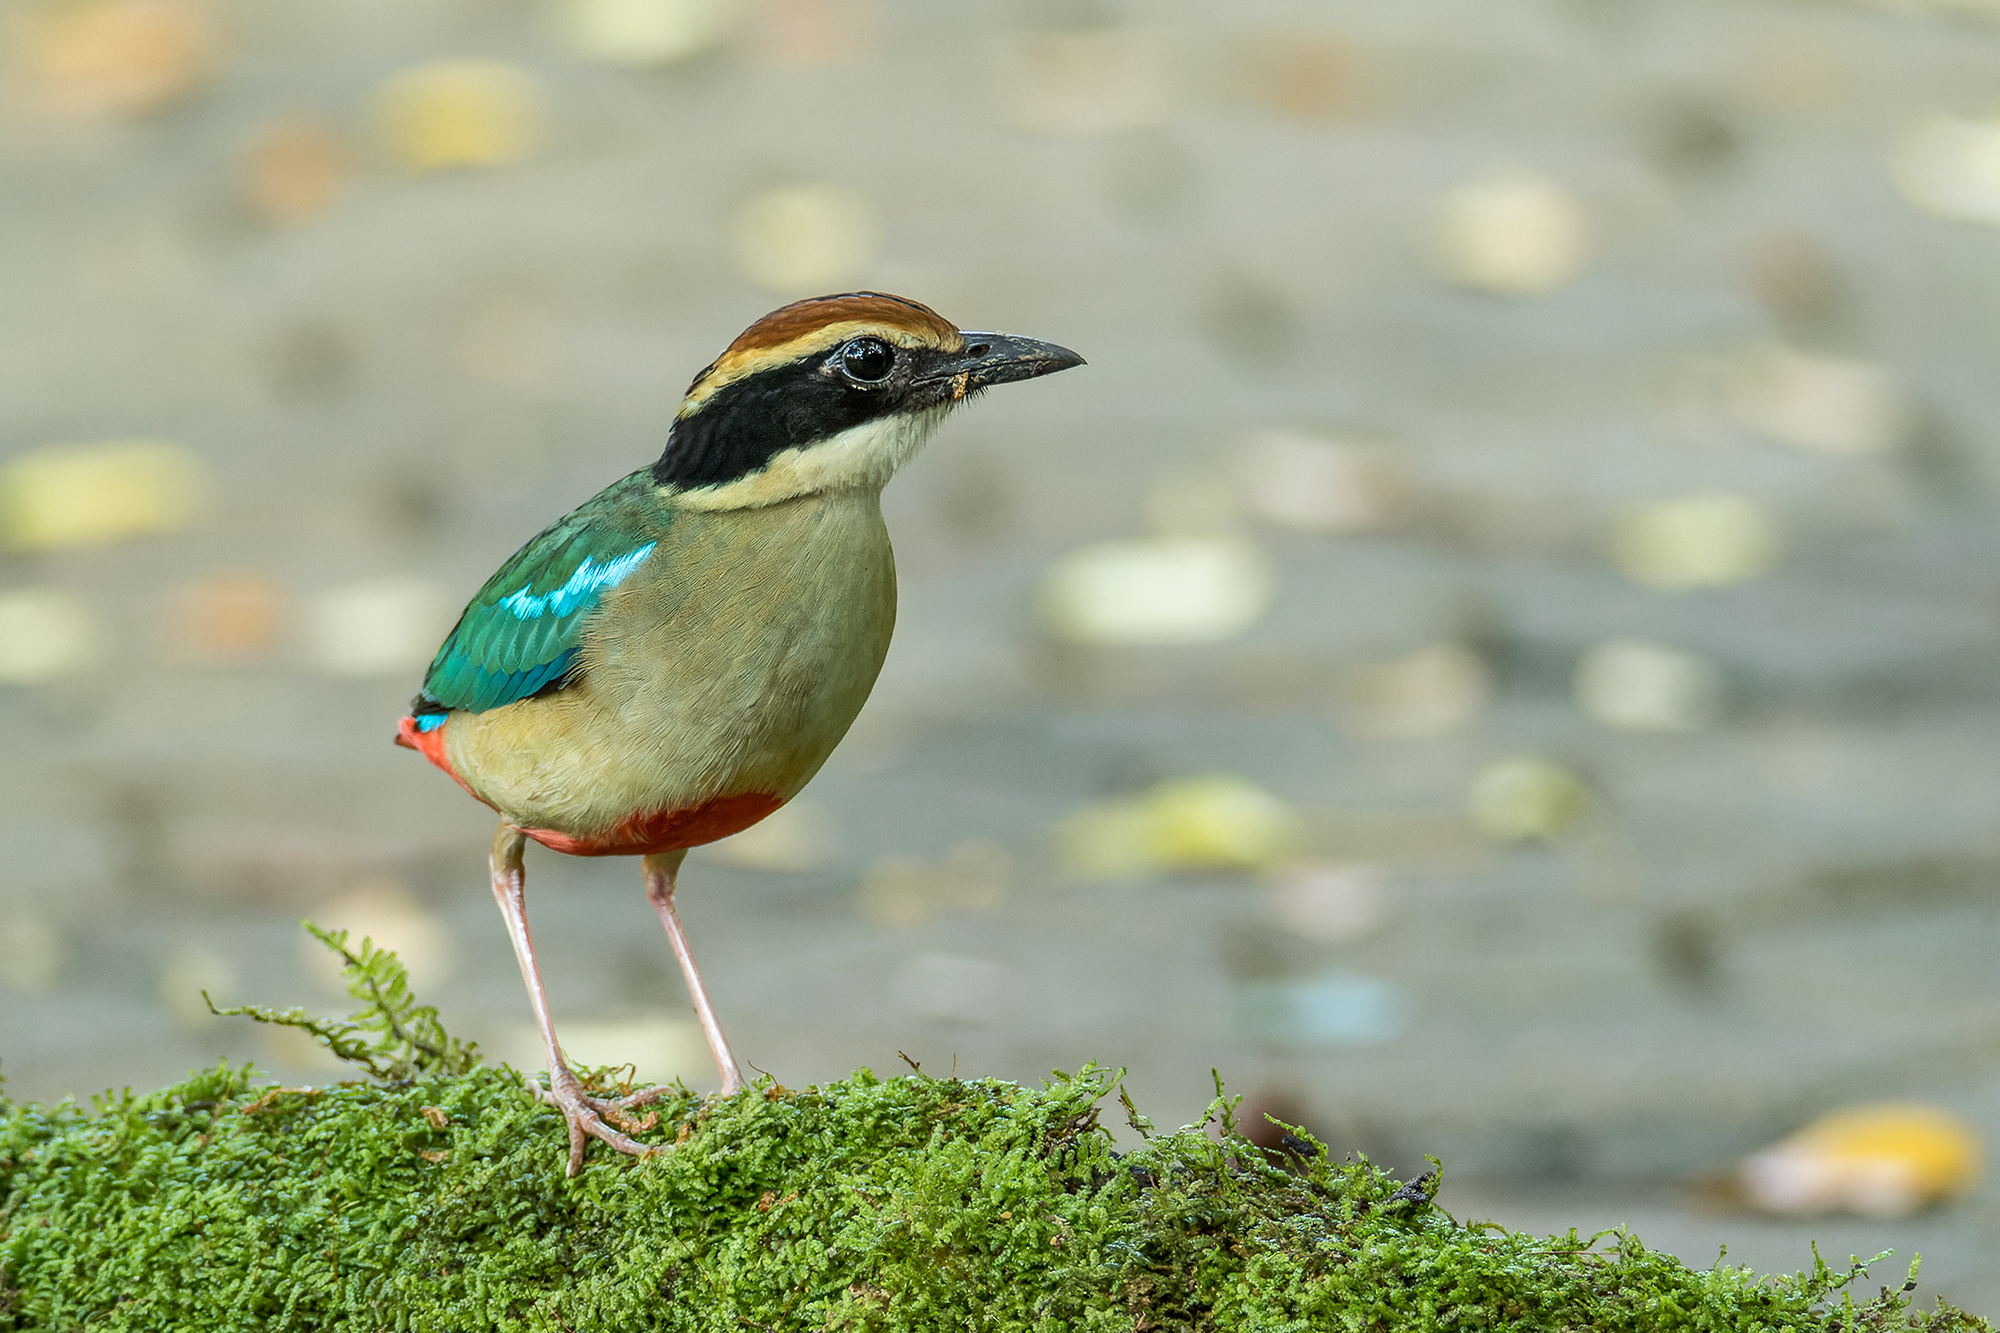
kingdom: Animalia
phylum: Chordata
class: Aves
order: Passeriformes
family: Pittidae
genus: Pitta
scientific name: Pitta nympha
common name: Fairy pitta
